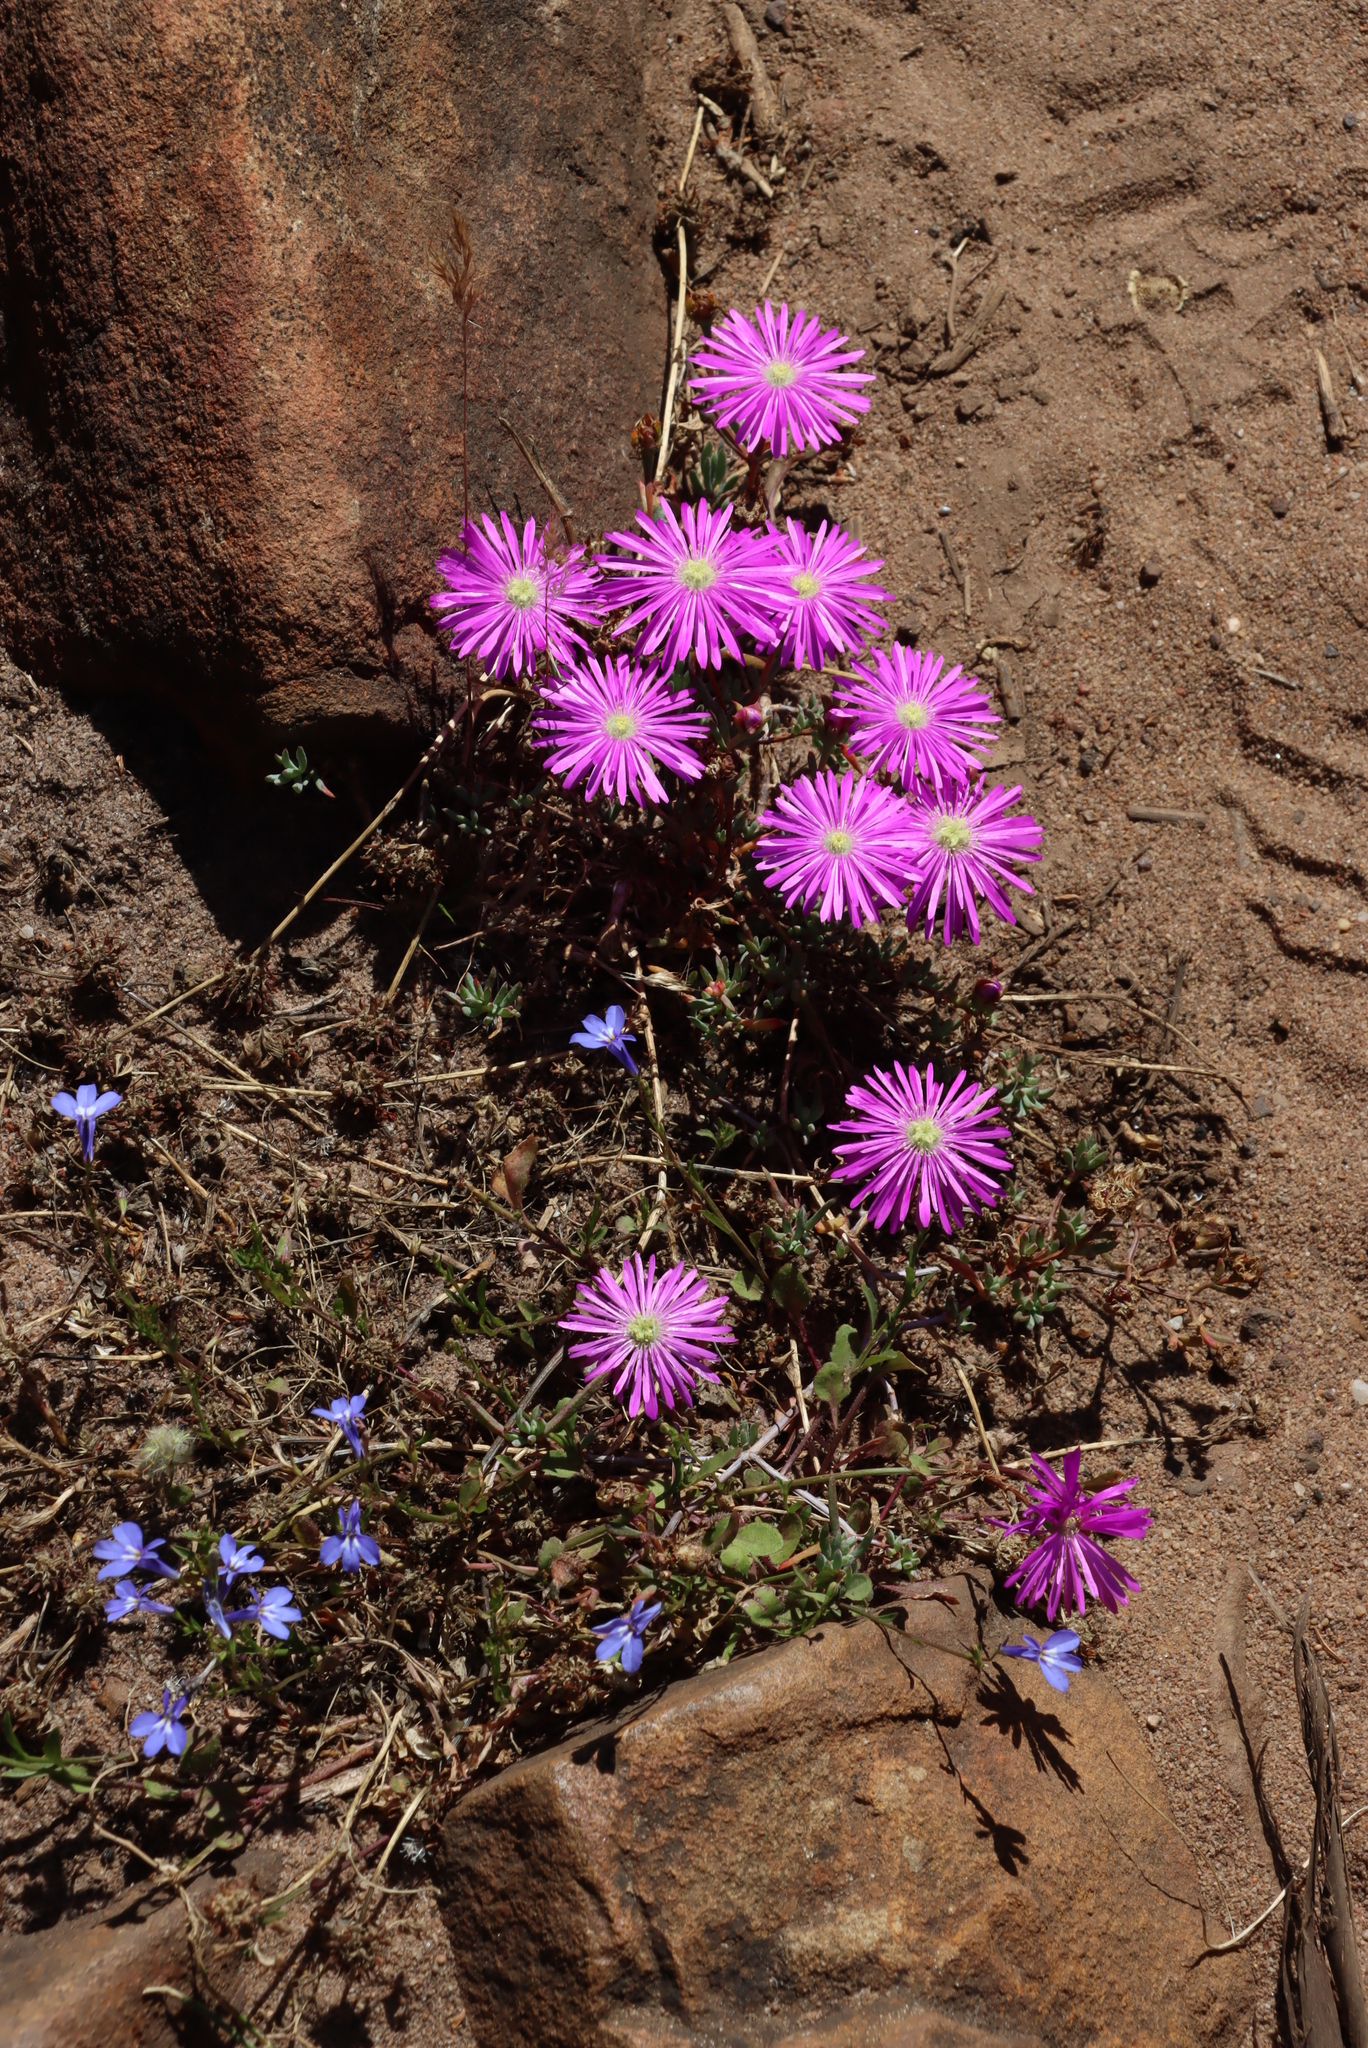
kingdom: Plantae
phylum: Tracheophyta
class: Magnoliopsida
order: Caryophyllales
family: Aizoaceae
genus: Lampranthus
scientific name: Lampranthus emarginatus
